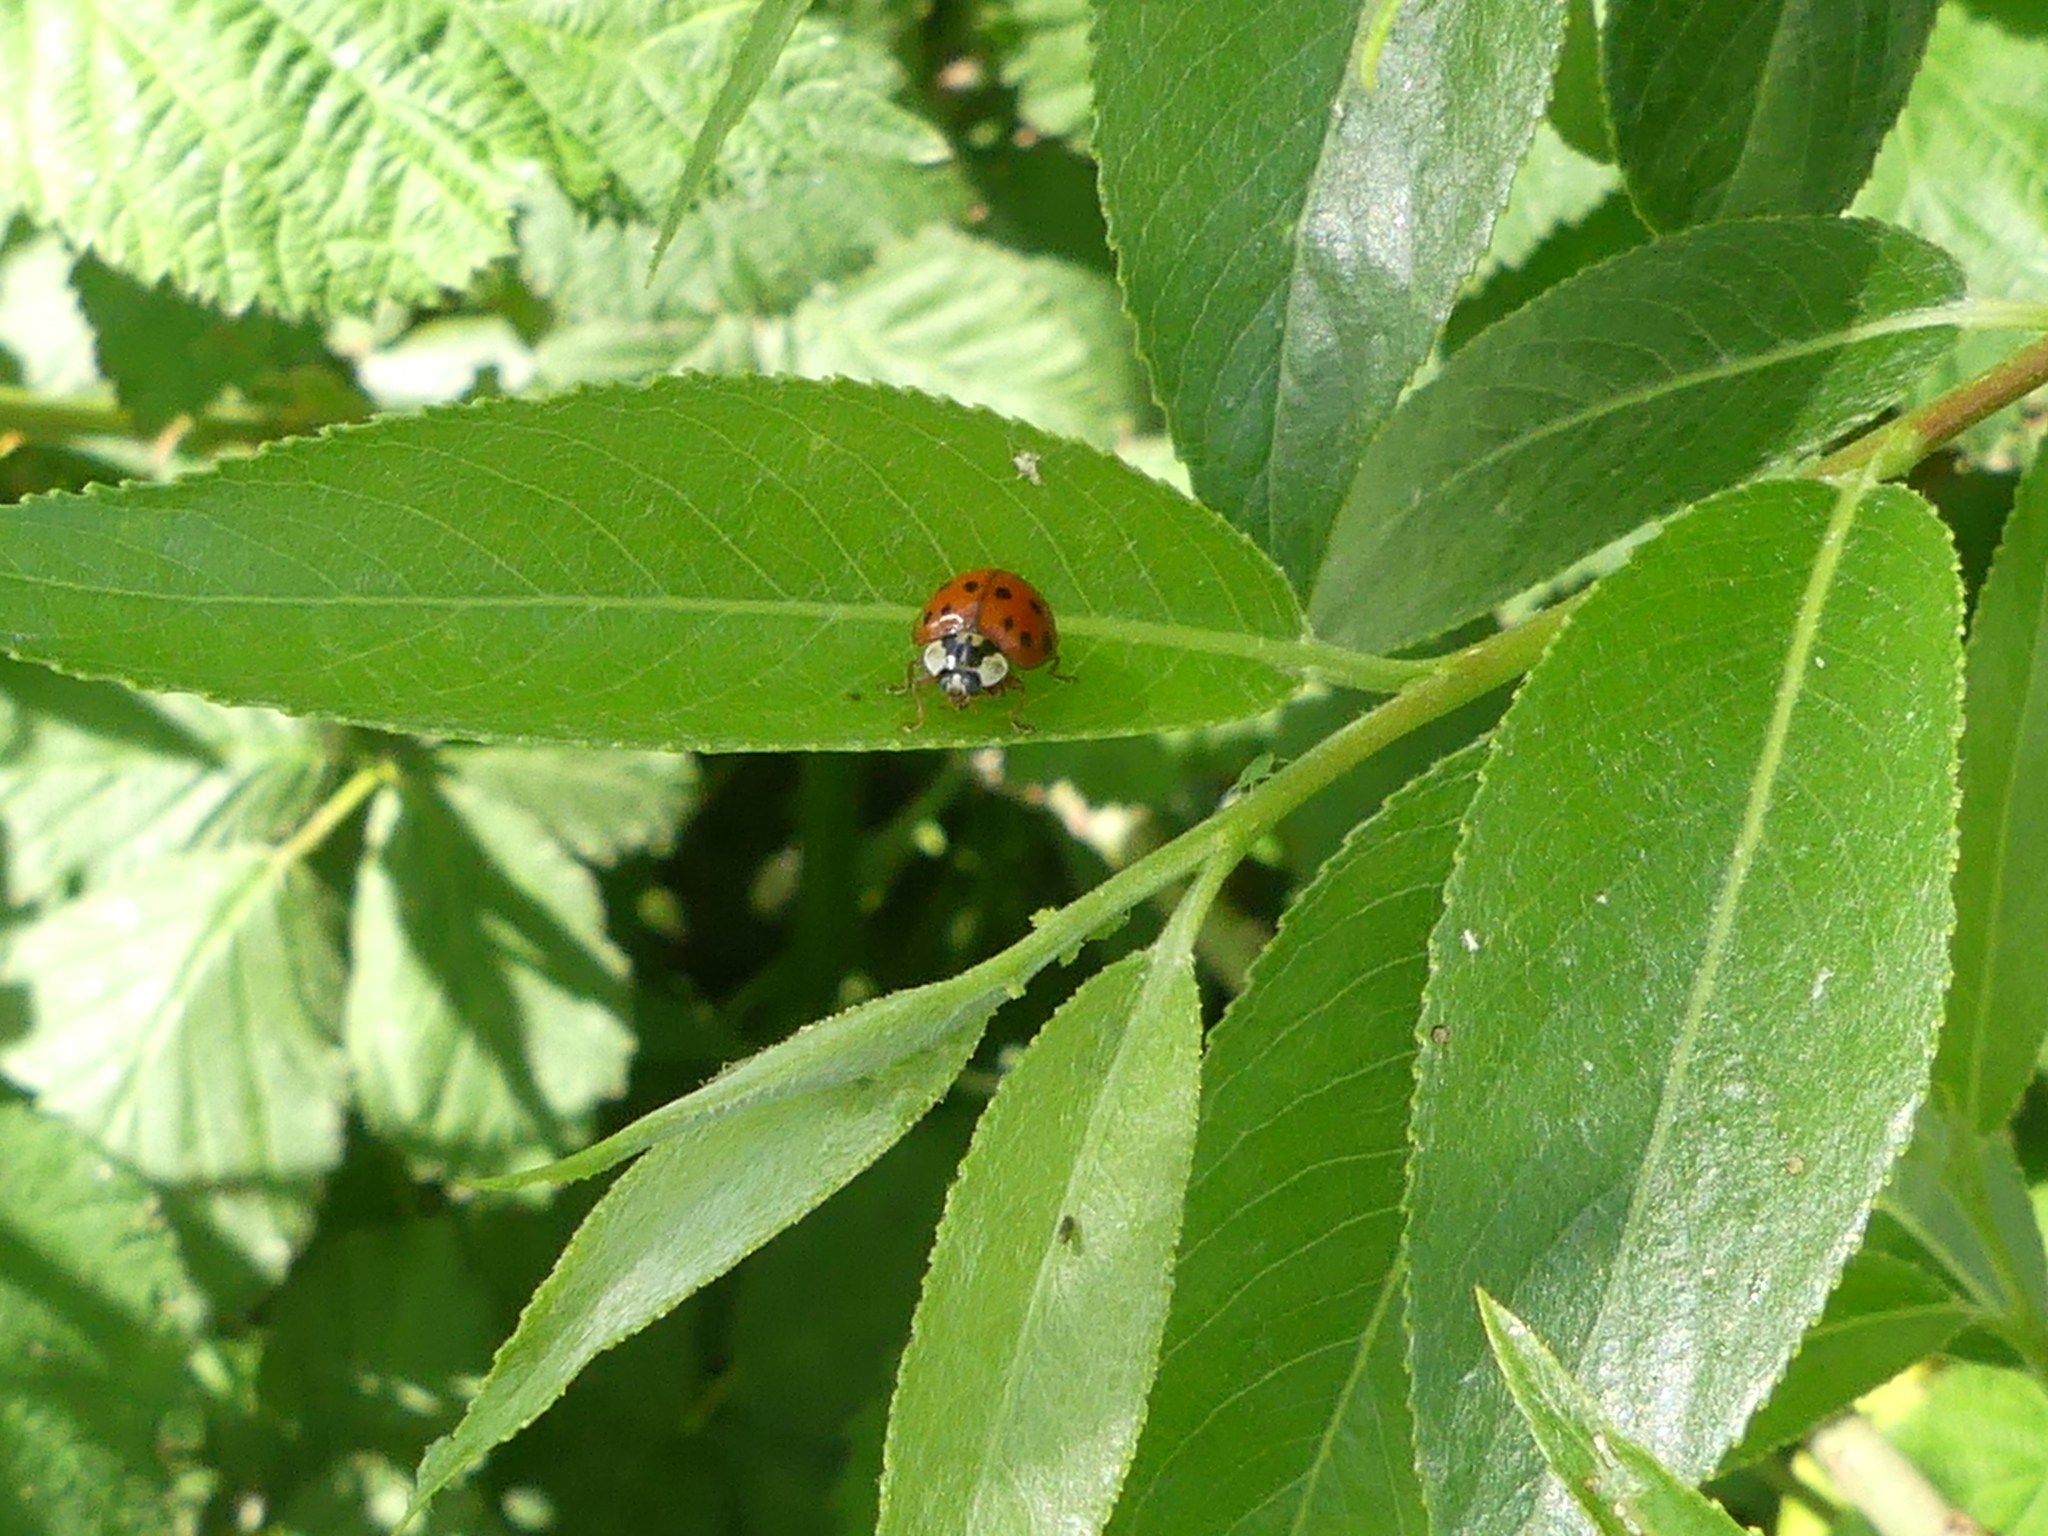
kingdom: Animalia
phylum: Arthropoda
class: Insecta
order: Coleoptera
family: Coccinellidae
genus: Harmonia
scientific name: Harmonia axyridis
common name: Harlequin ladybird
